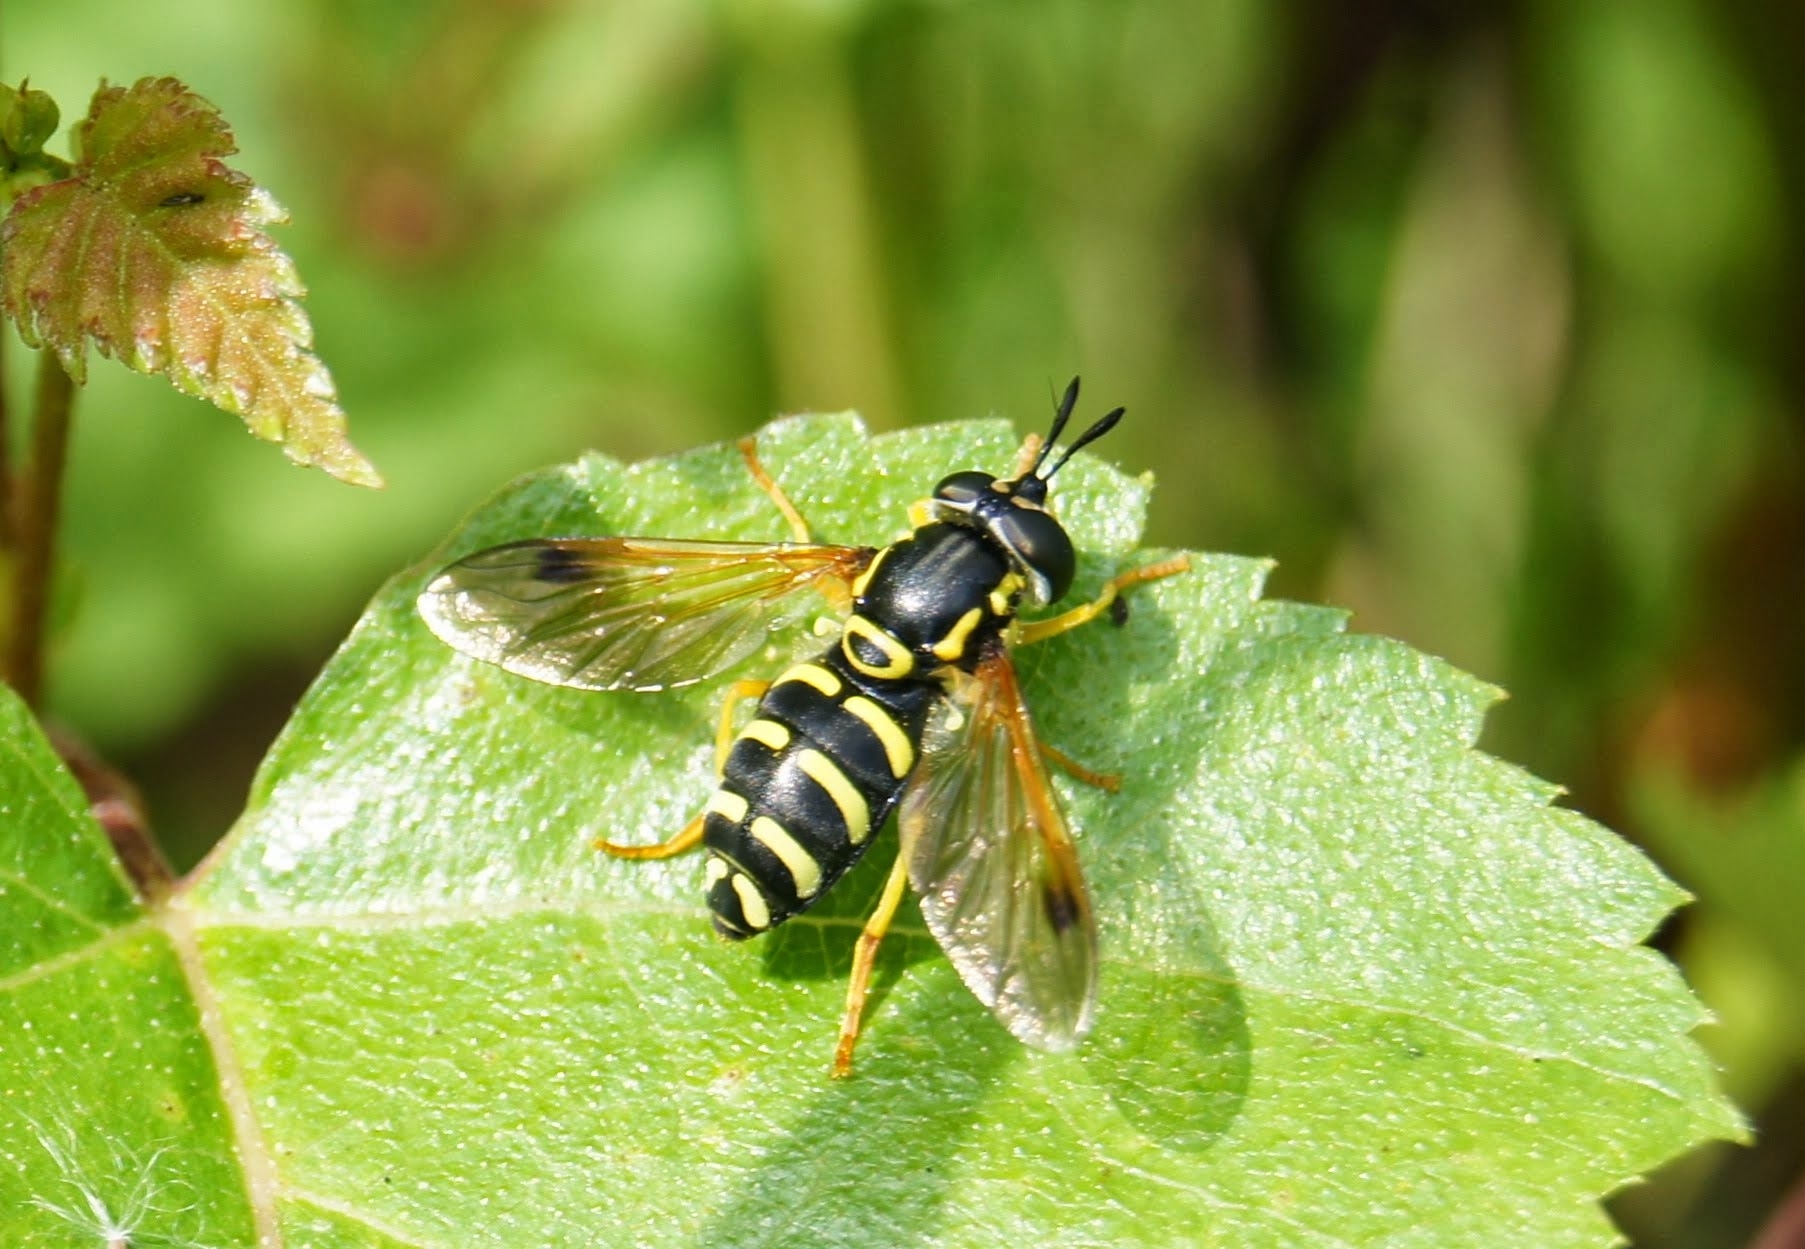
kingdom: Animalia
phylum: Arthropoda
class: Insecta
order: Diptera
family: Syrphidae
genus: Chrysotoxum
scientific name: Chrysotoxum festivum
